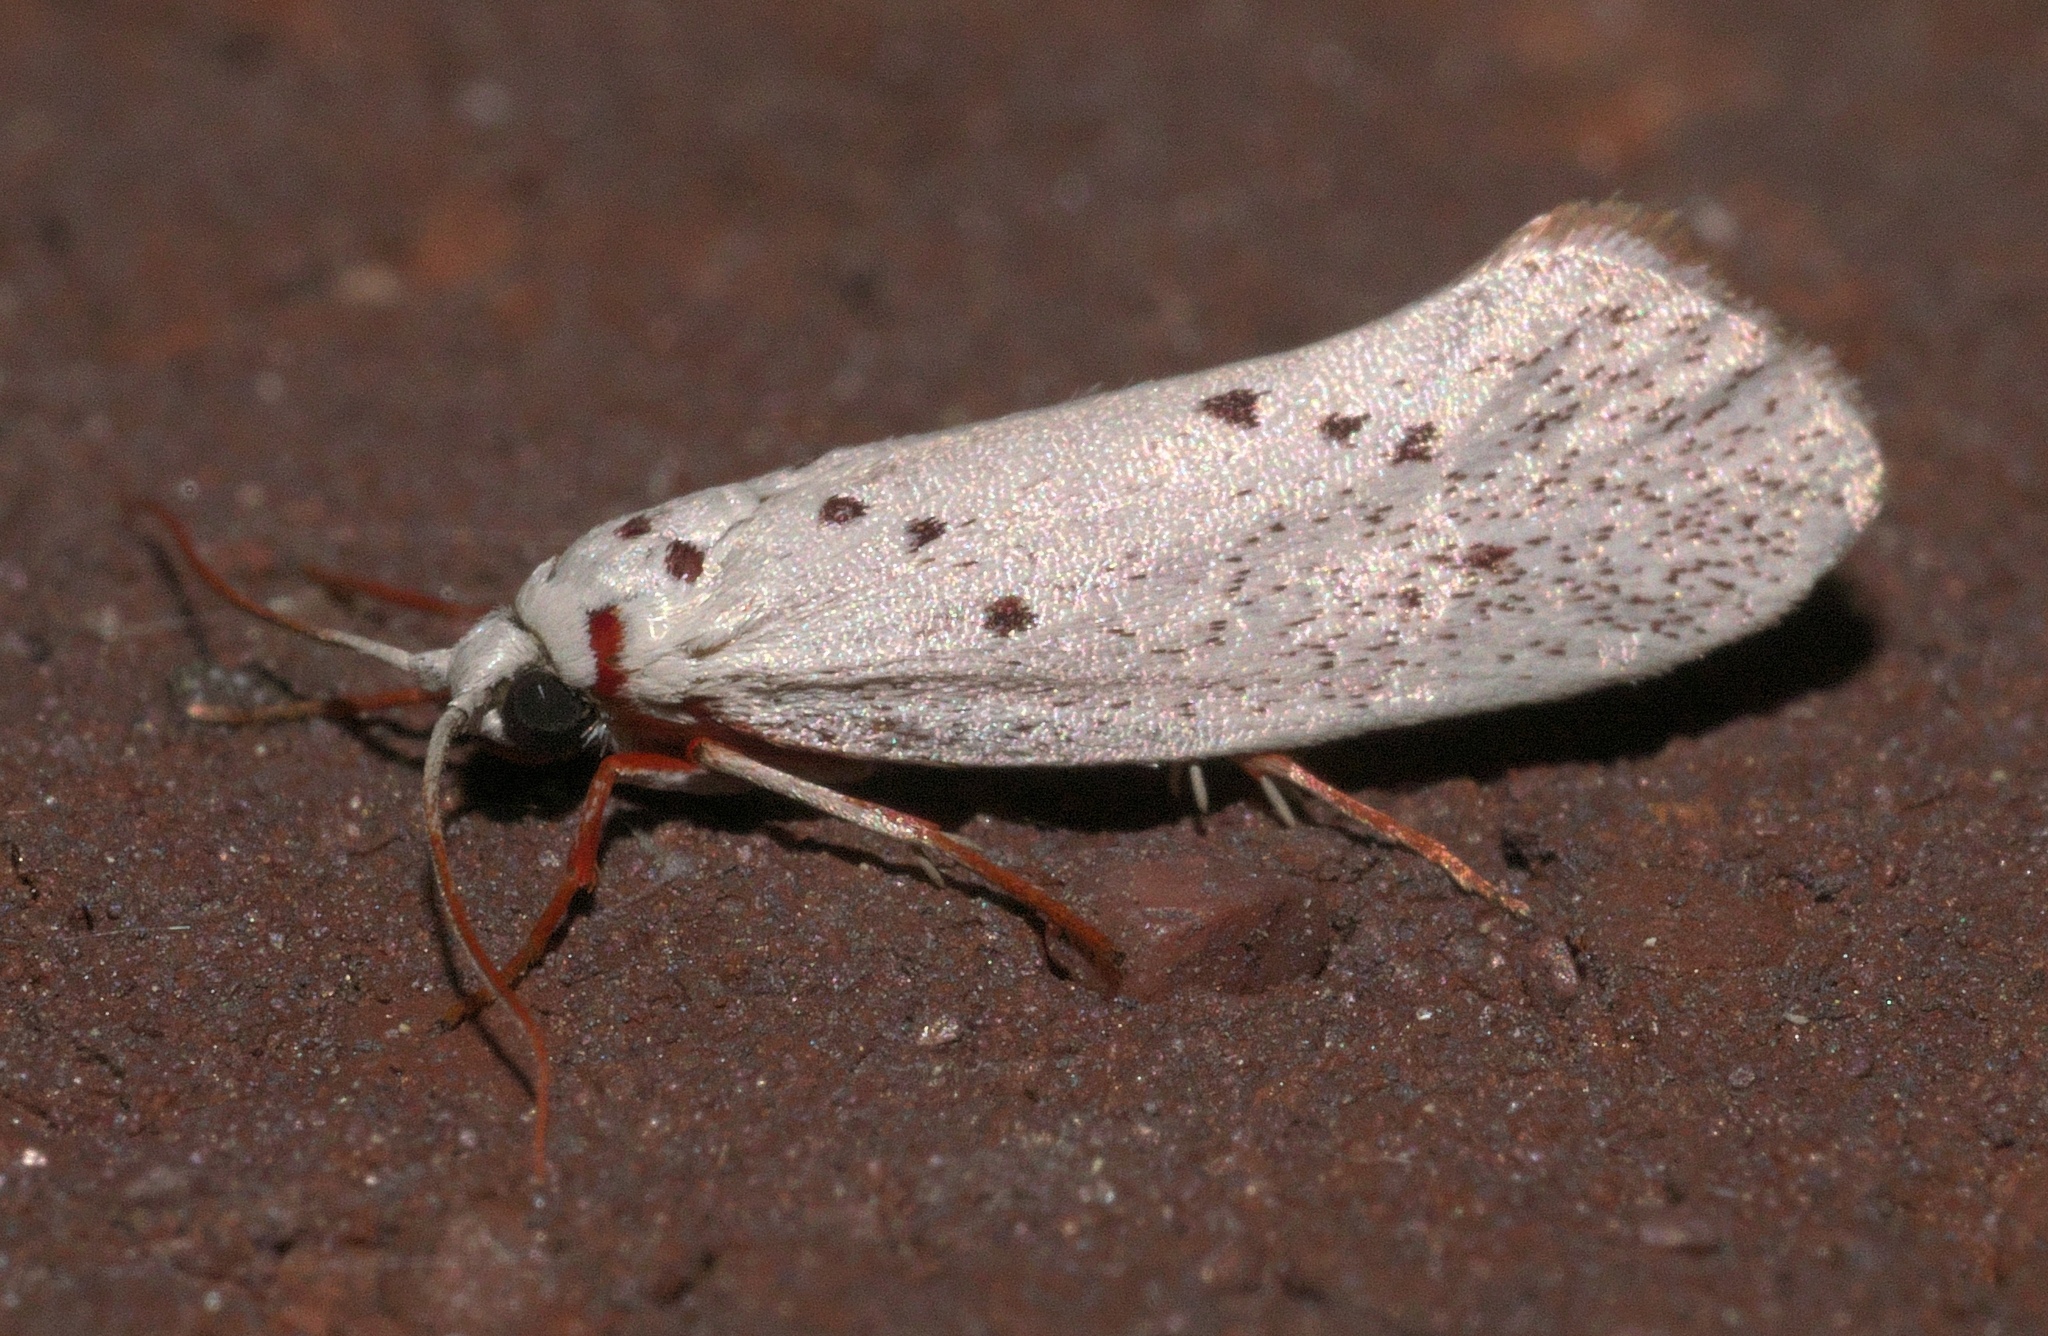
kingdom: Animalia
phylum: Arthropoda
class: Insecta
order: Lepidoptera
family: Lacturidae
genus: Lactura
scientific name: Lactura
